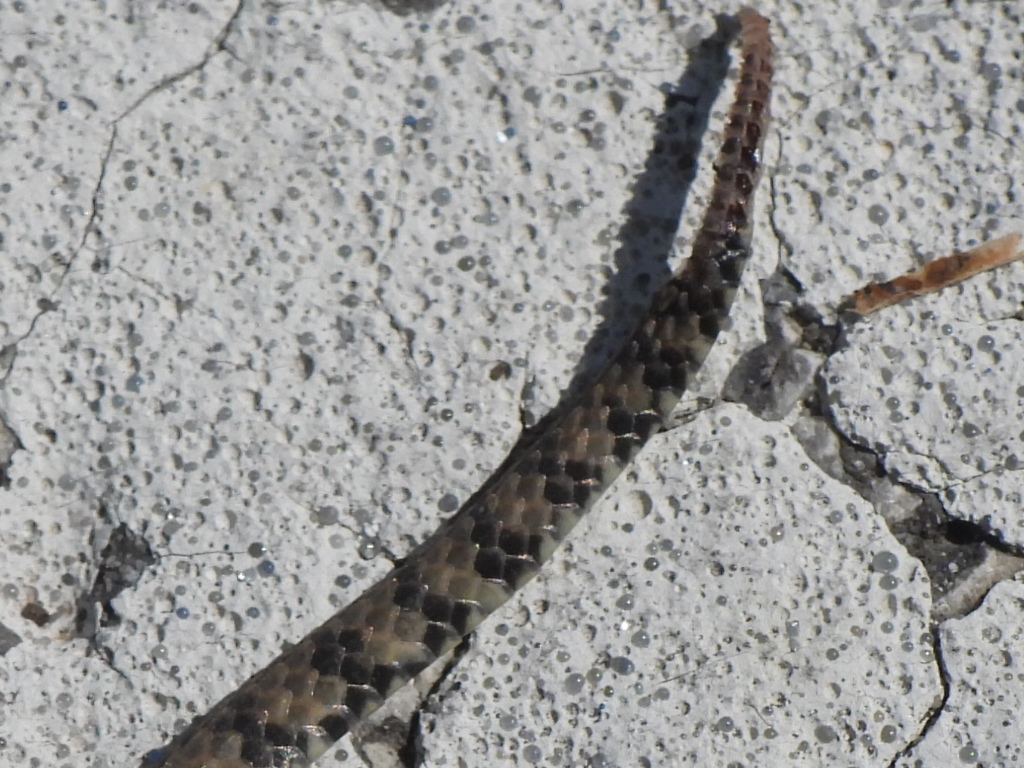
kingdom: Animalia
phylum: Chordata
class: Squamata
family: Colubridae
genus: Nerodia
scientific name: Nerodia rhombifer
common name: Diamondback water snake
